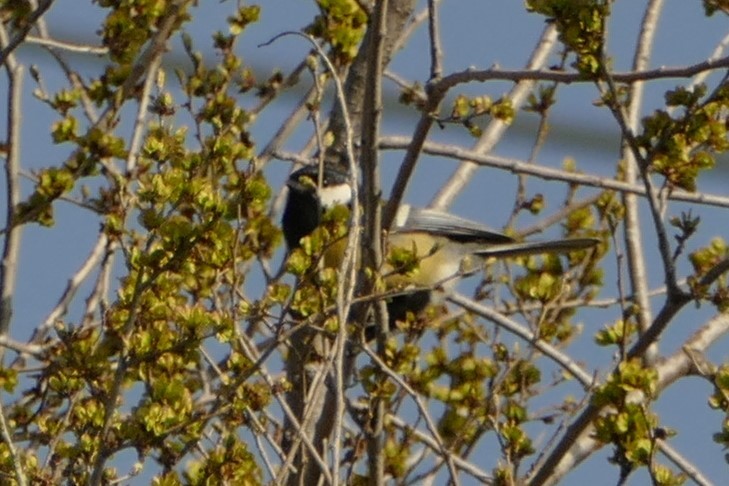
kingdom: Animalia
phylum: Chordata
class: Aves
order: Passeriformes
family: Paridae
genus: Parus
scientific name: Parus major
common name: Great tit
